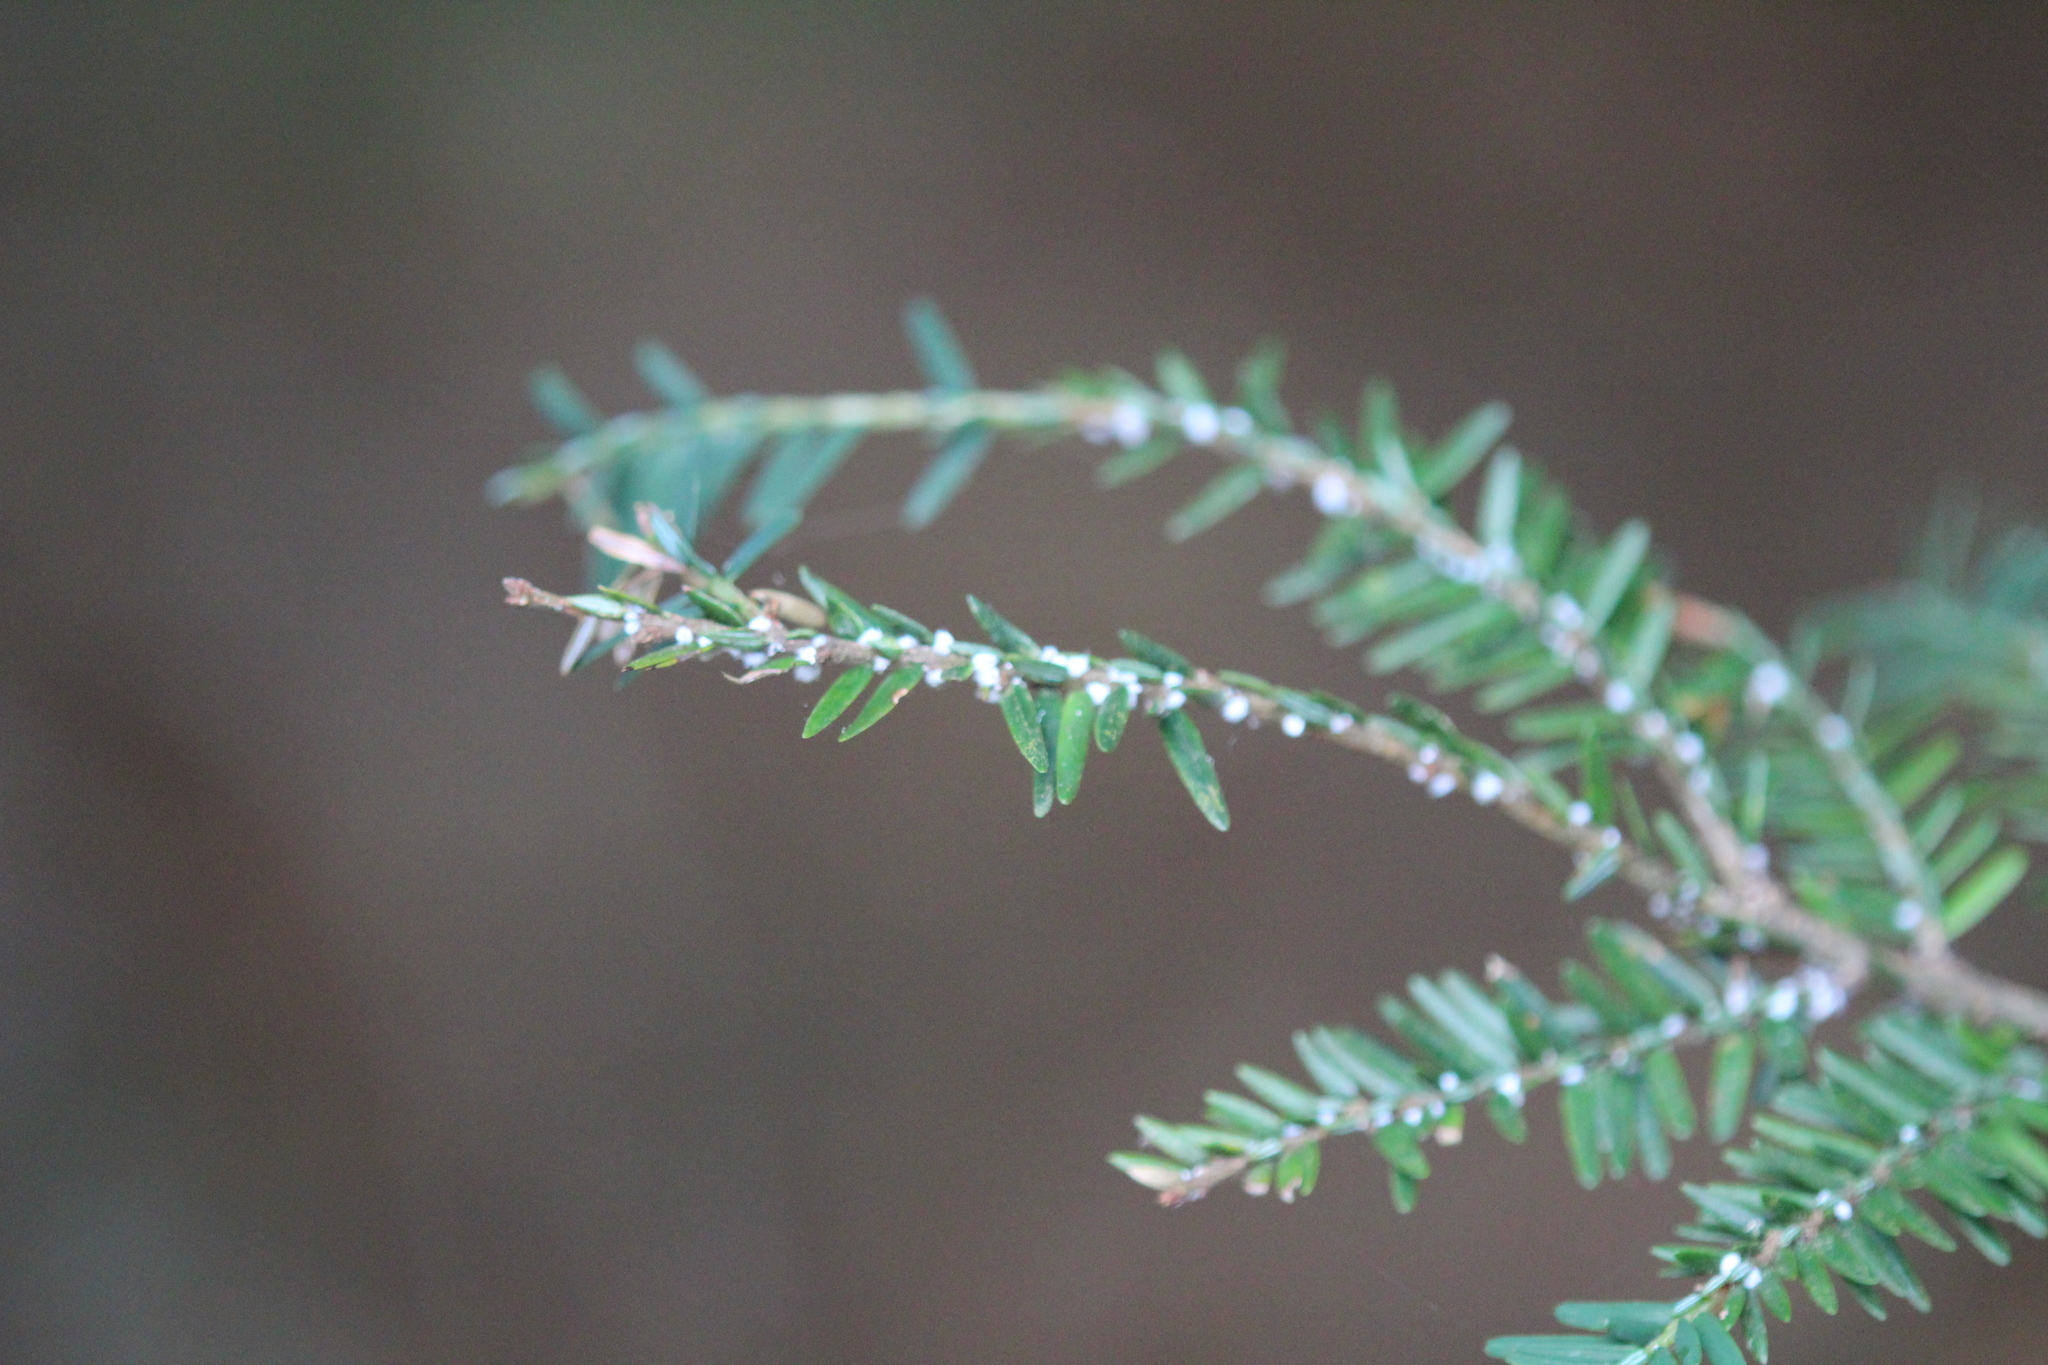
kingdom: Plantae
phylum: Tracheophyta
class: Pinopsida
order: Pinales
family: Pinaceae
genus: Tsuga
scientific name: Tsuga canadensis
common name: Eastern hemlock
